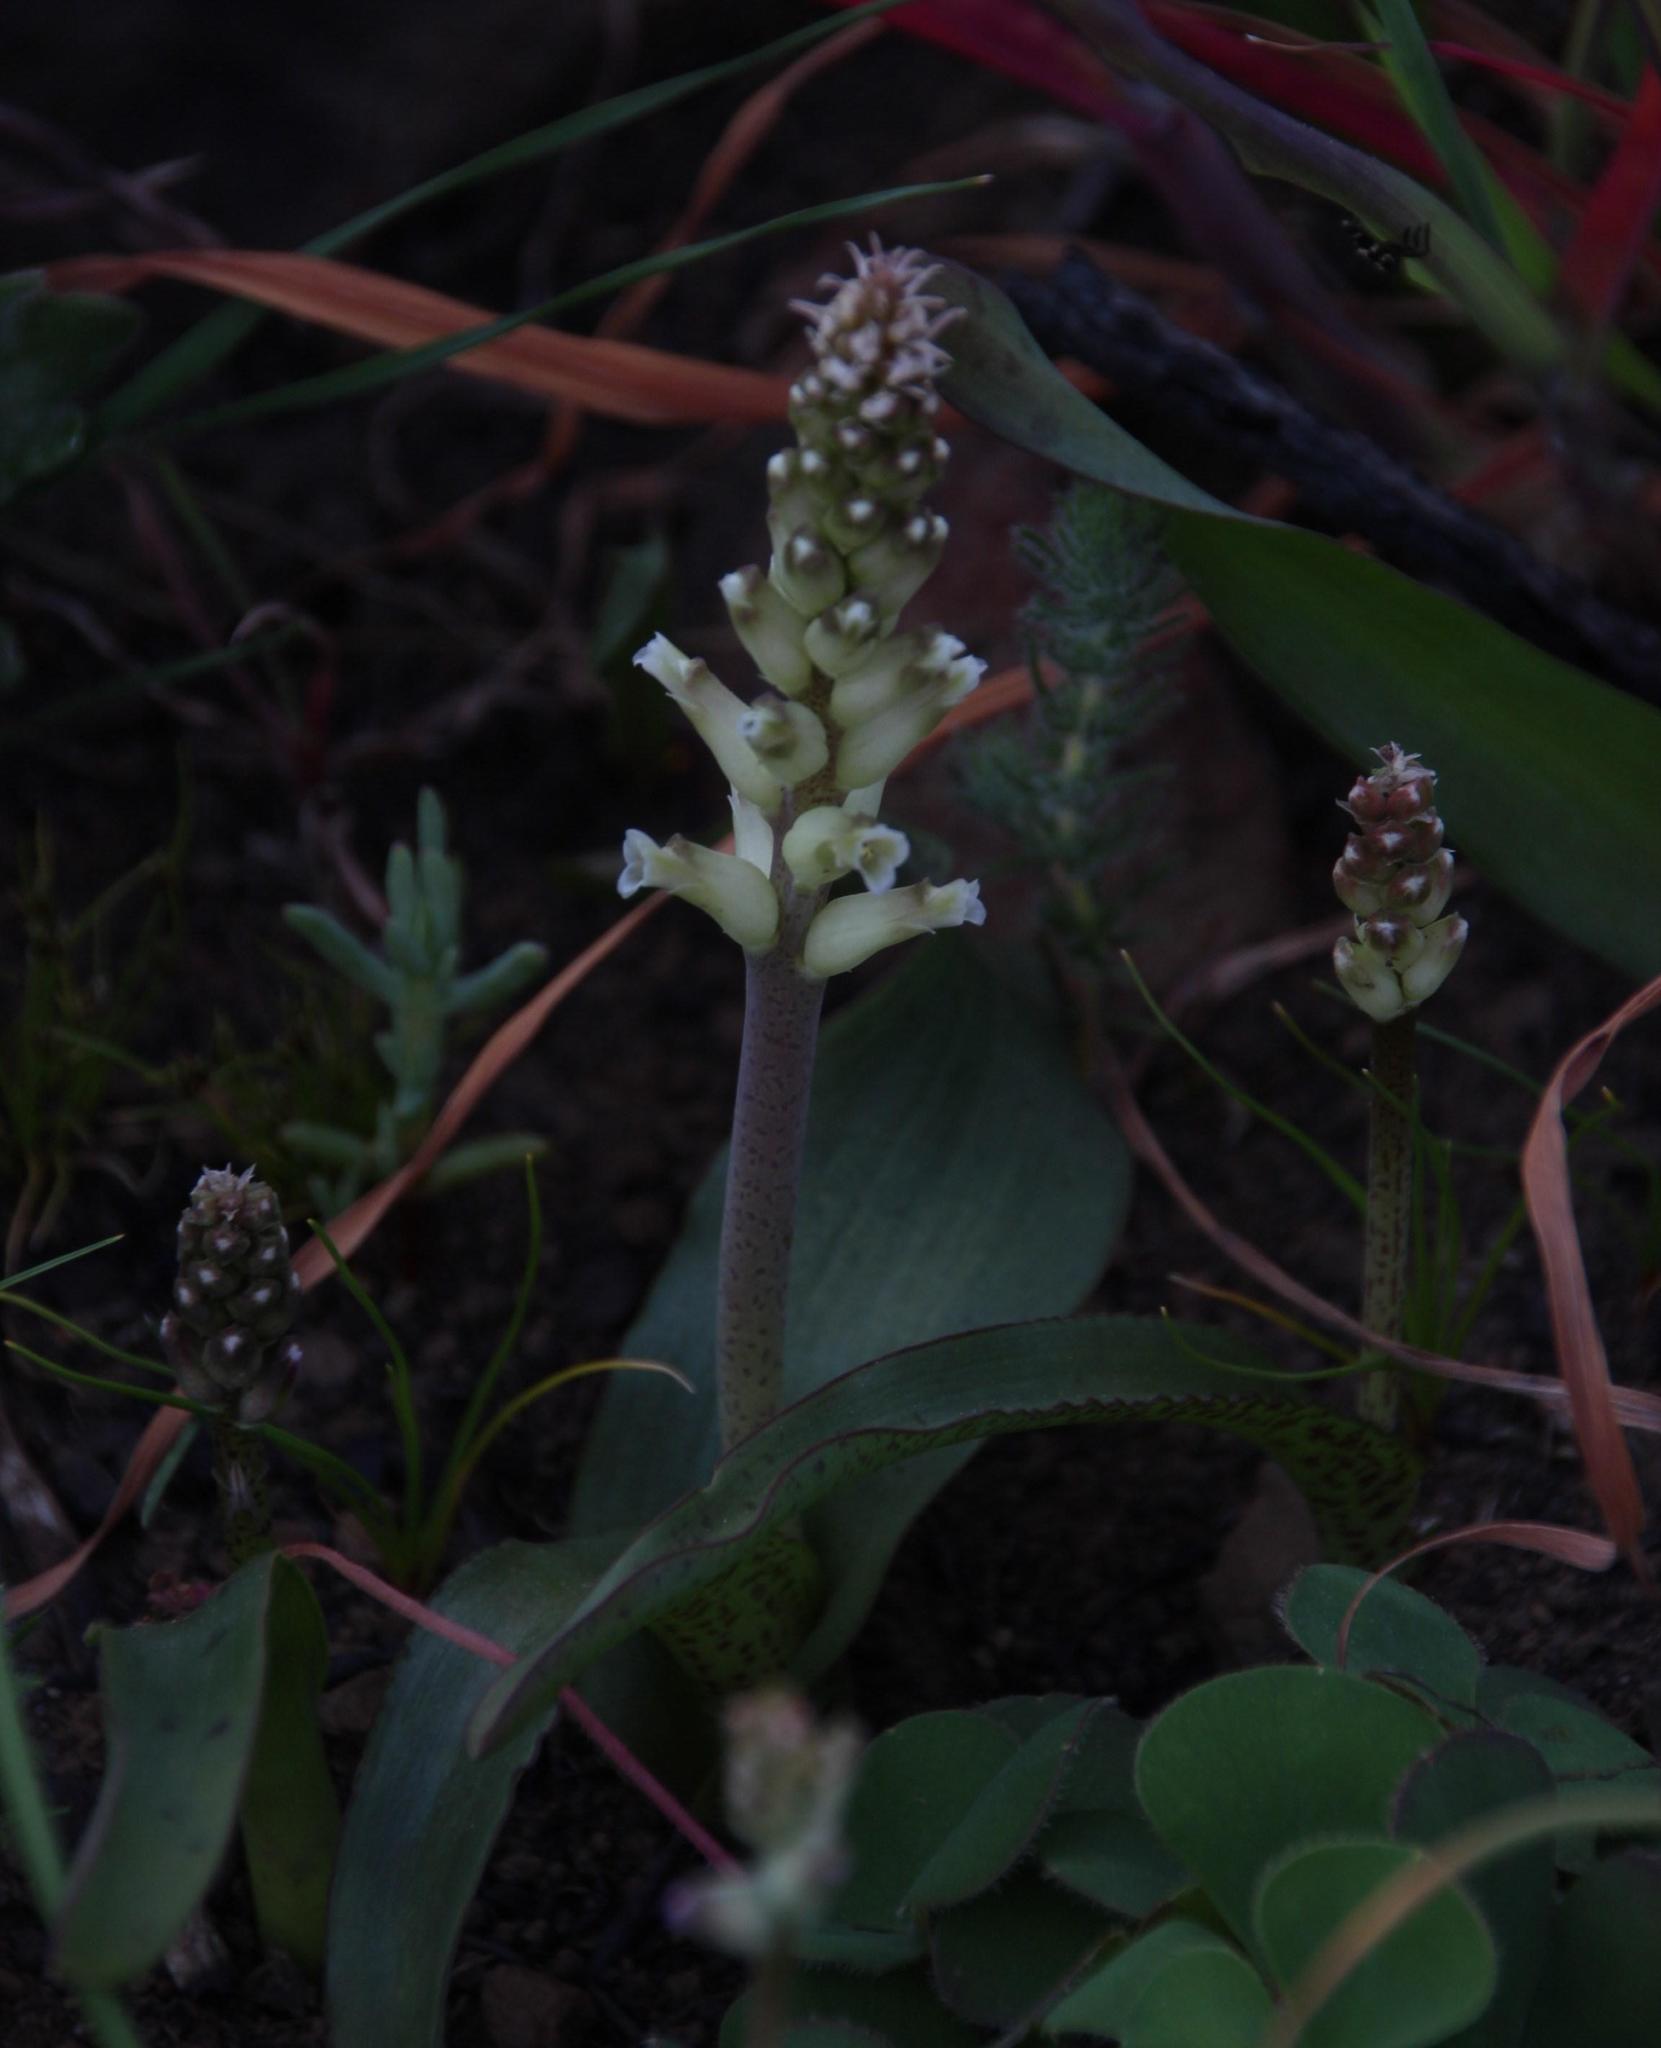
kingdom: Plantae
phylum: Tracheophyta
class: Liliopsida
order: Asparagales
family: Asparagaceae
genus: Lachenalia
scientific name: Lachenalia fistulosa
